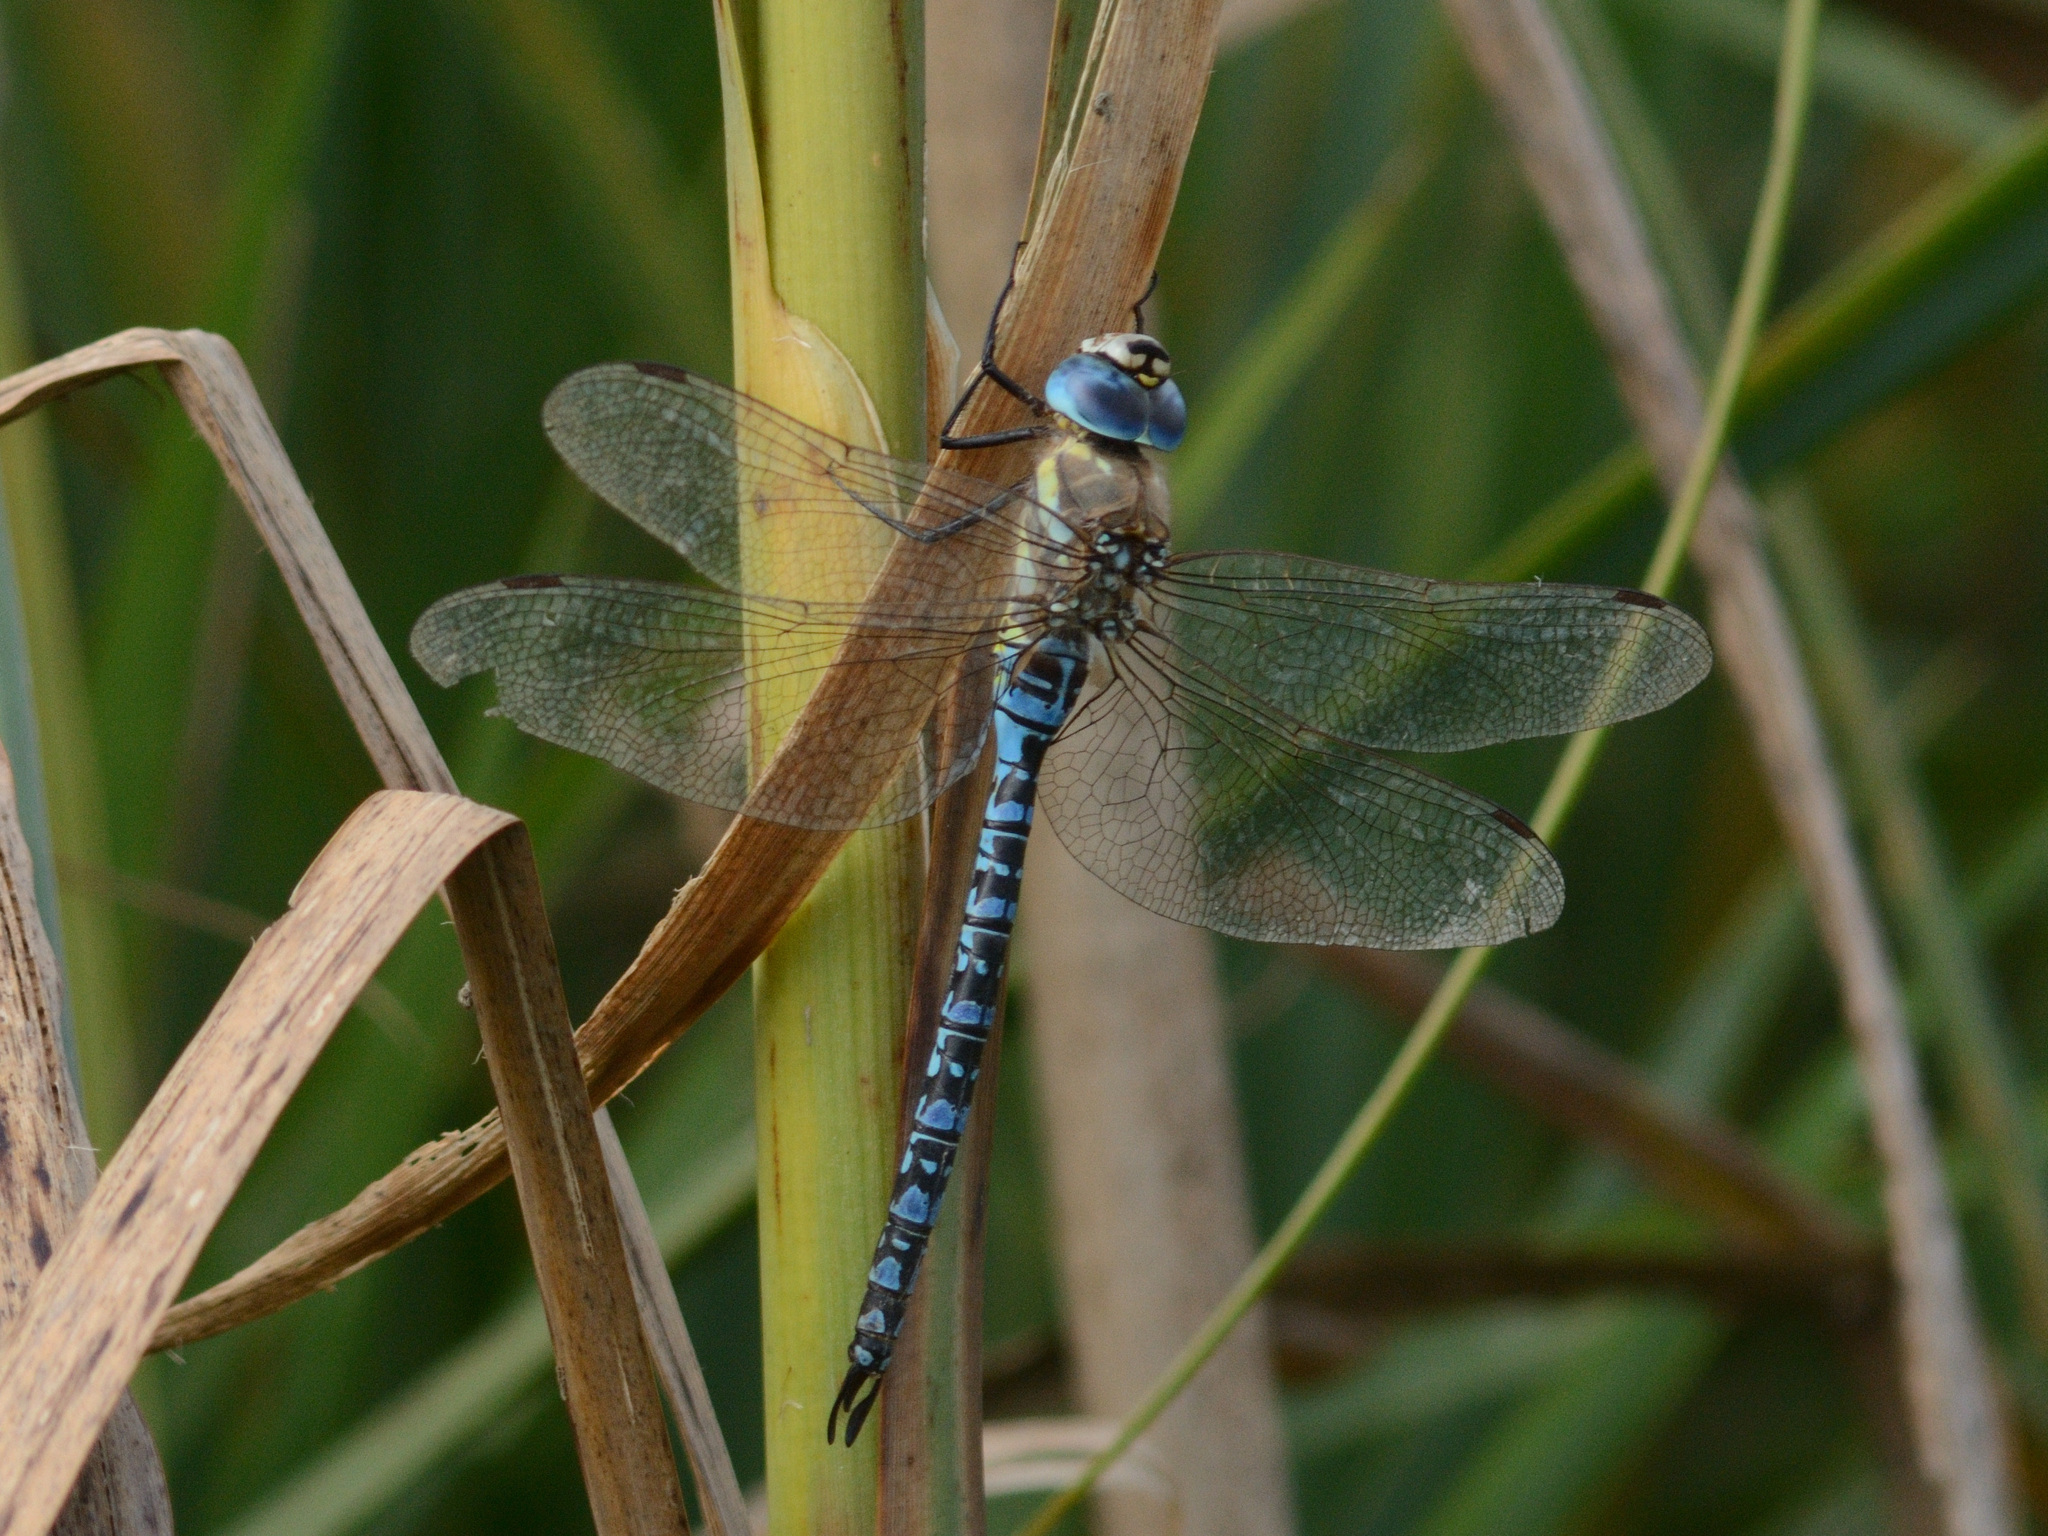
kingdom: Animalia
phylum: Arthropoda
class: Insecta
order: Odonata
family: Aeshnidae
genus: Aeshna
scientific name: Aeshna soneharai
